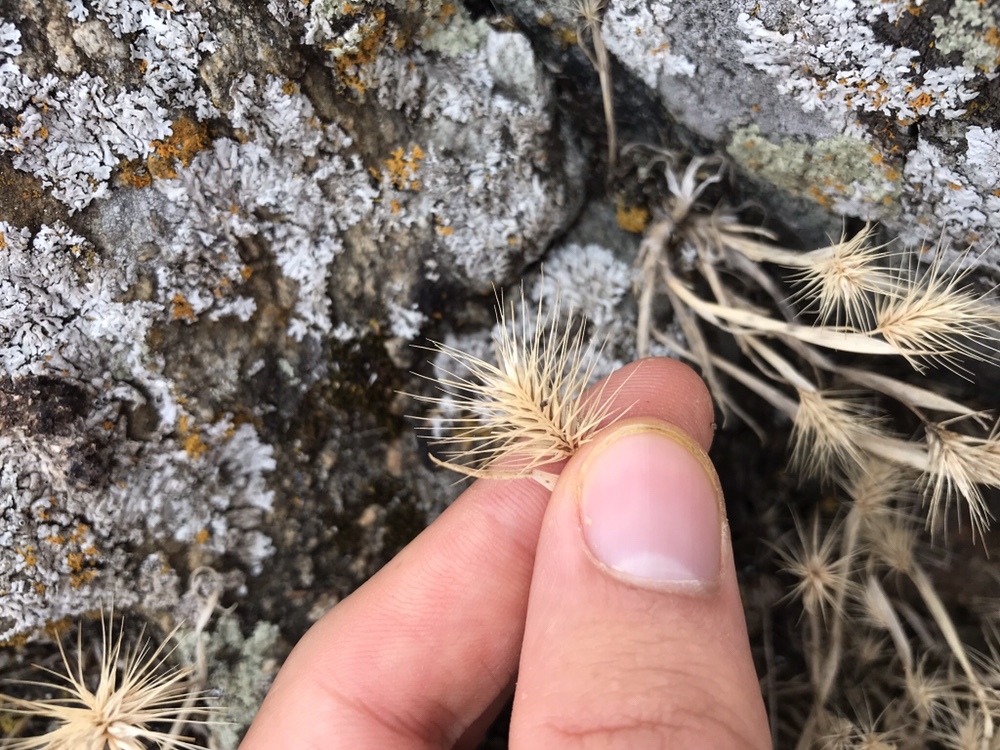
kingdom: Plantae
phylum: Tracheophyta
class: Liliopsida
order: Poales
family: Poaceae
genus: Cynosurus
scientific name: Cynosurus echinatus
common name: Rough dog's-tail
